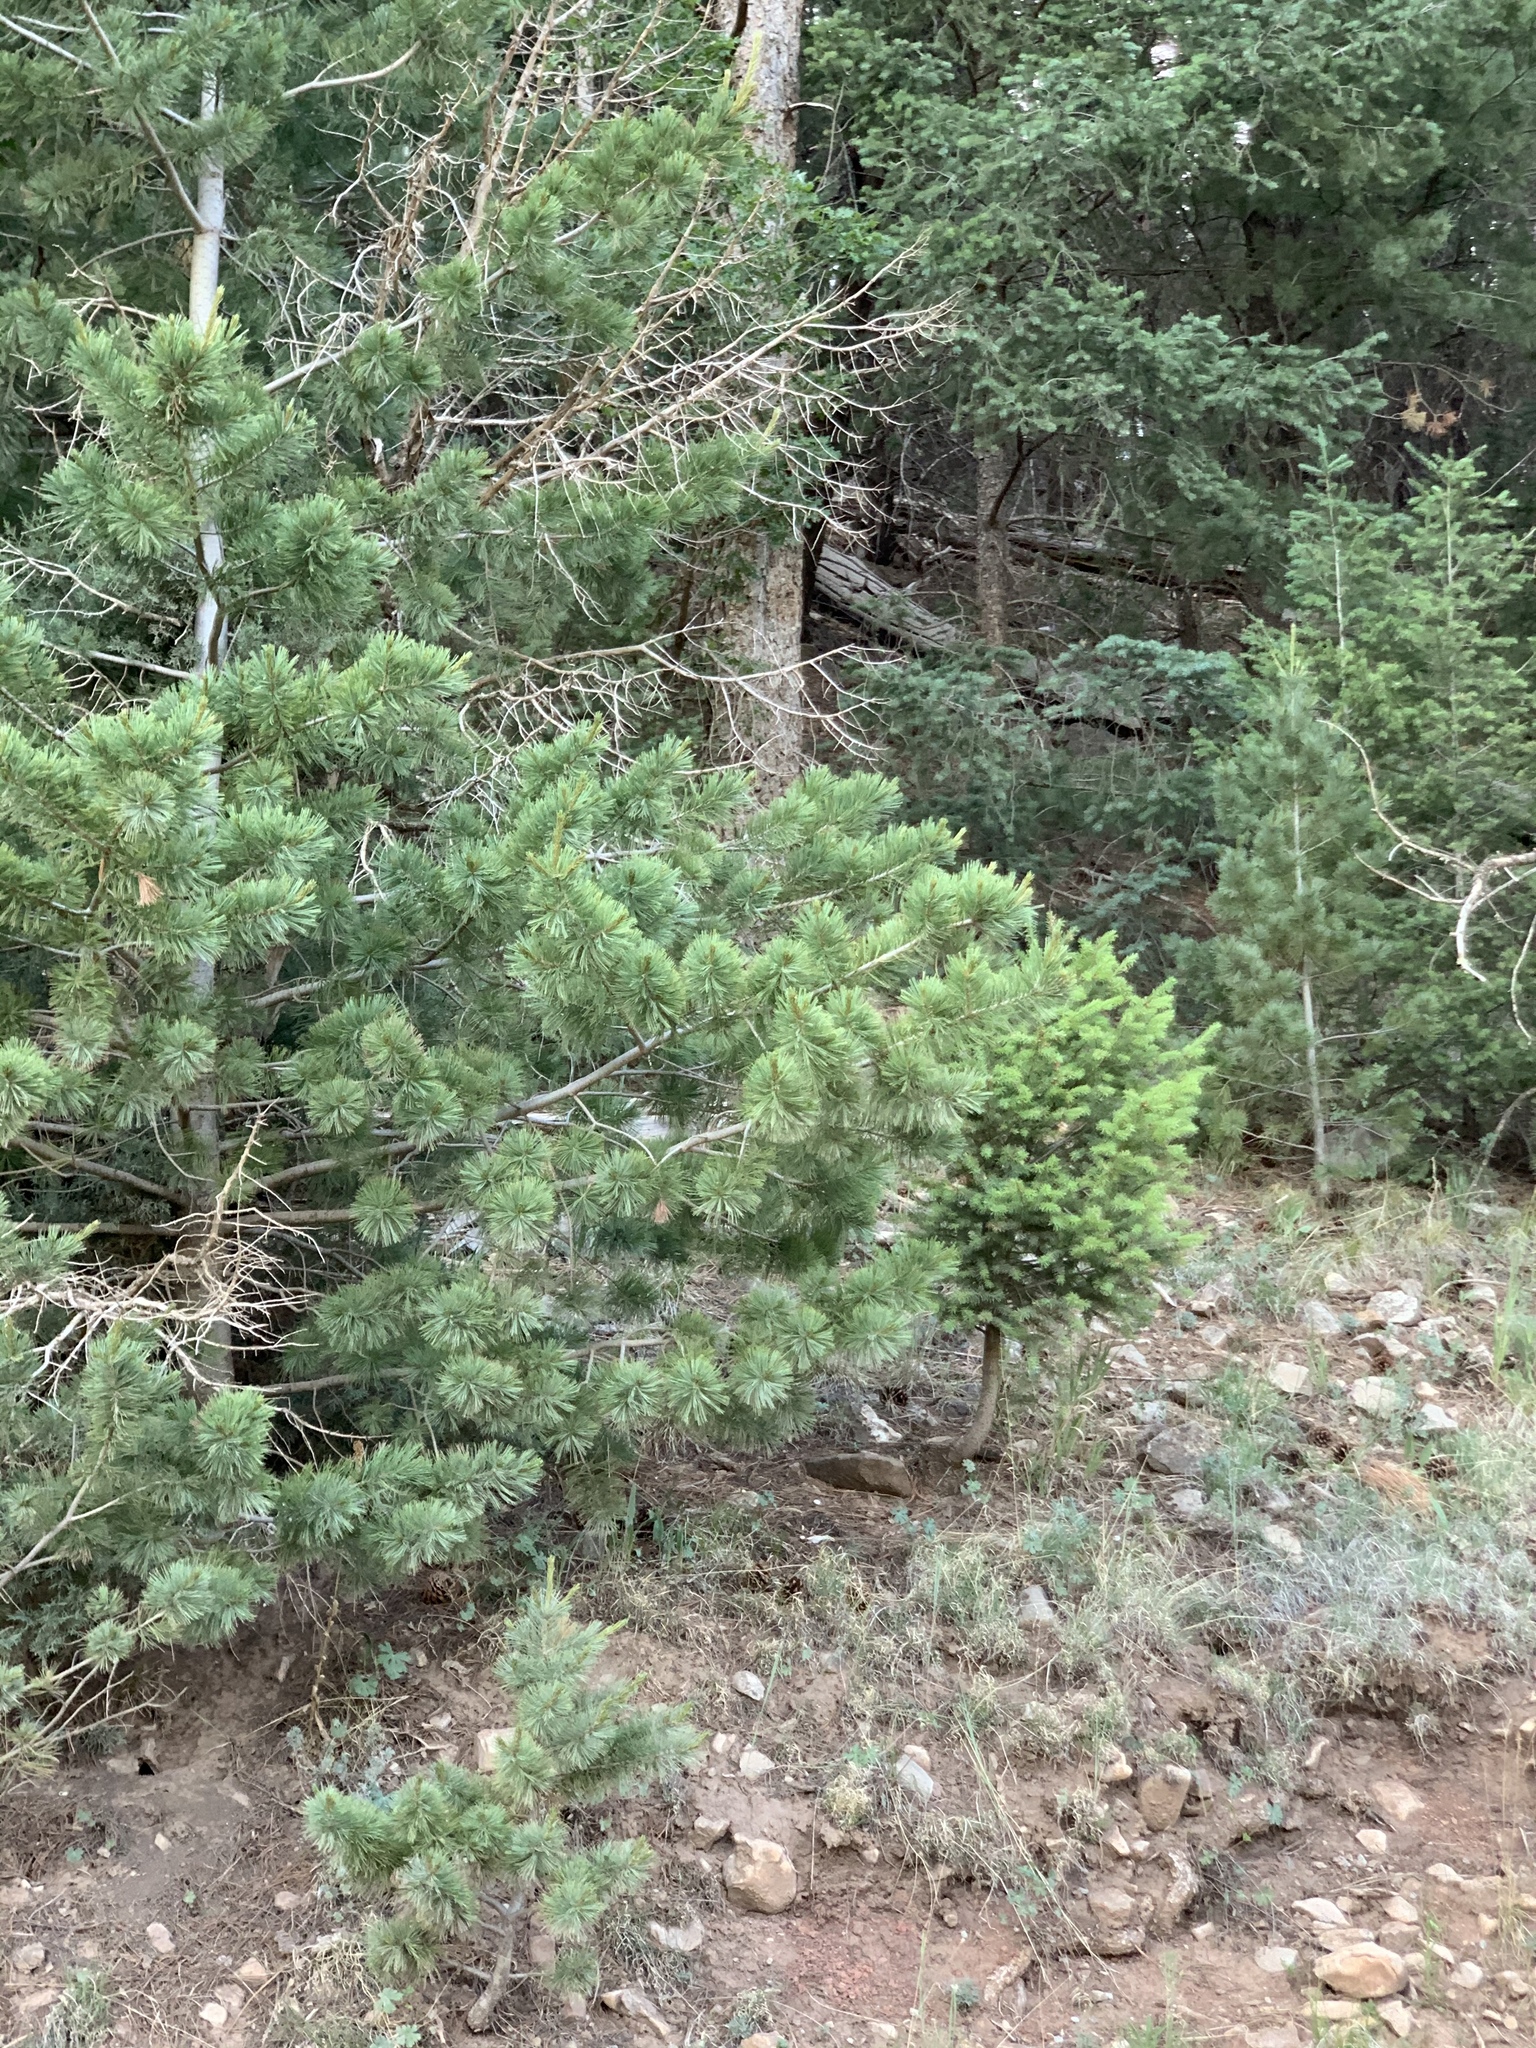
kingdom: Plantae
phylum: Tracheophyta
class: Pinopsida
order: Pinales
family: Pinaceae
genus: Pinus
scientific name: Pinus strobiformis
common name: Southwestern white pine
